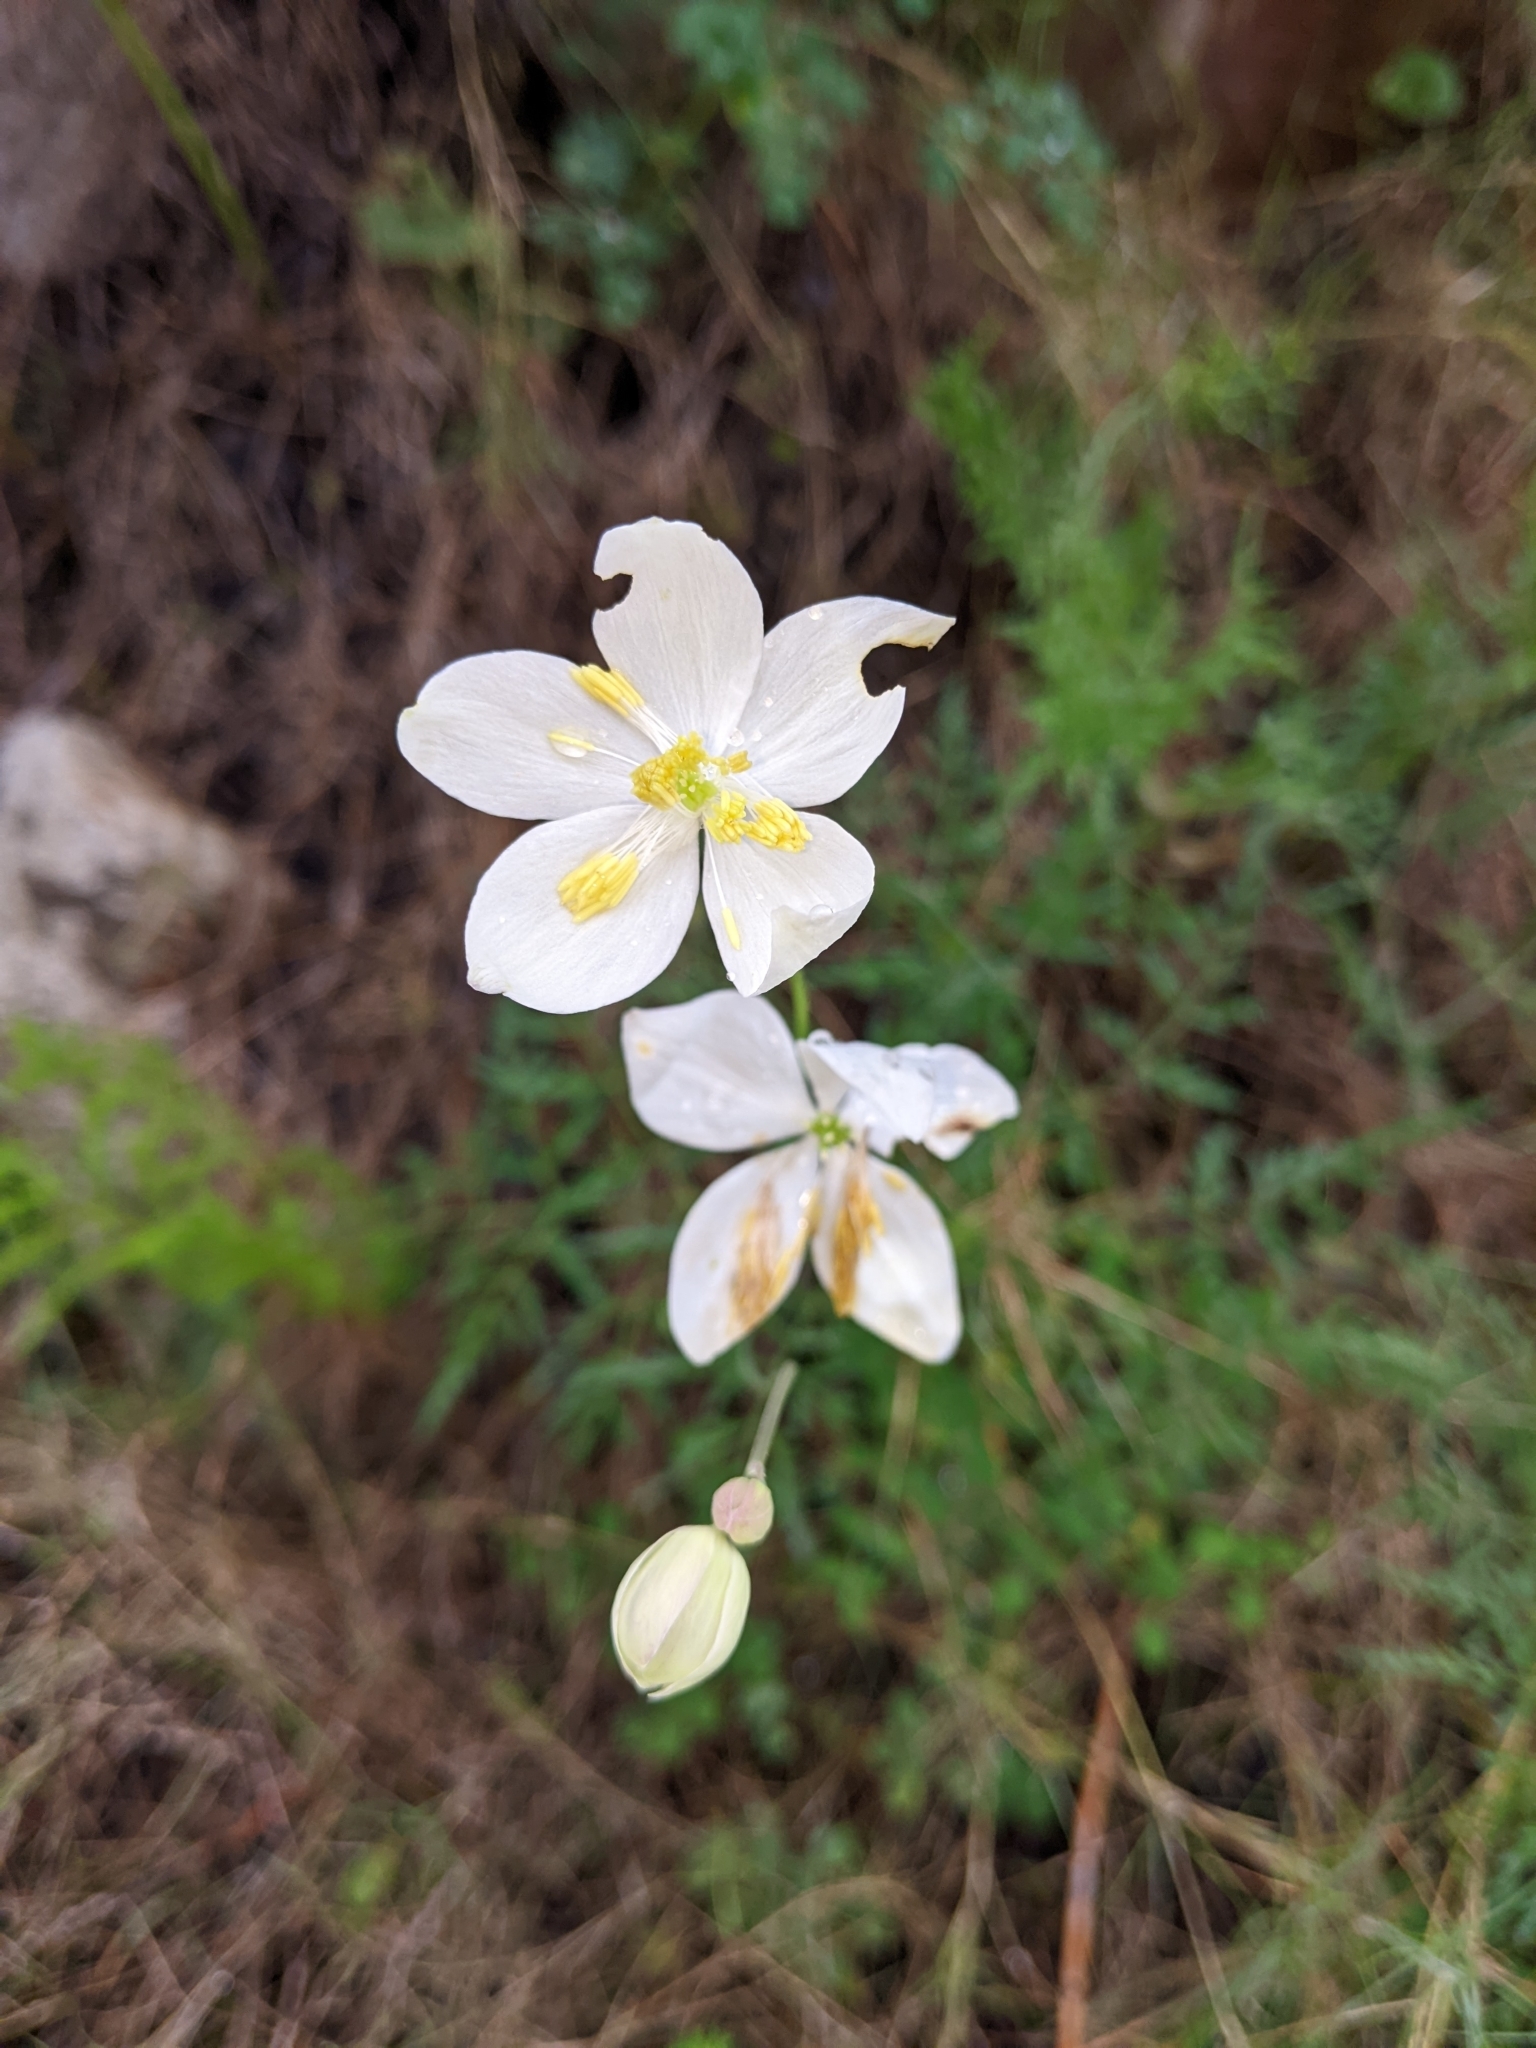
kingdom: Plantae
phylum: Tracheophyta
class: Magnoliopsida
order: Ranunculales
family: Ranunculaceae
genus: Thalictrum
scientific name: Thalictrum tuberosum
